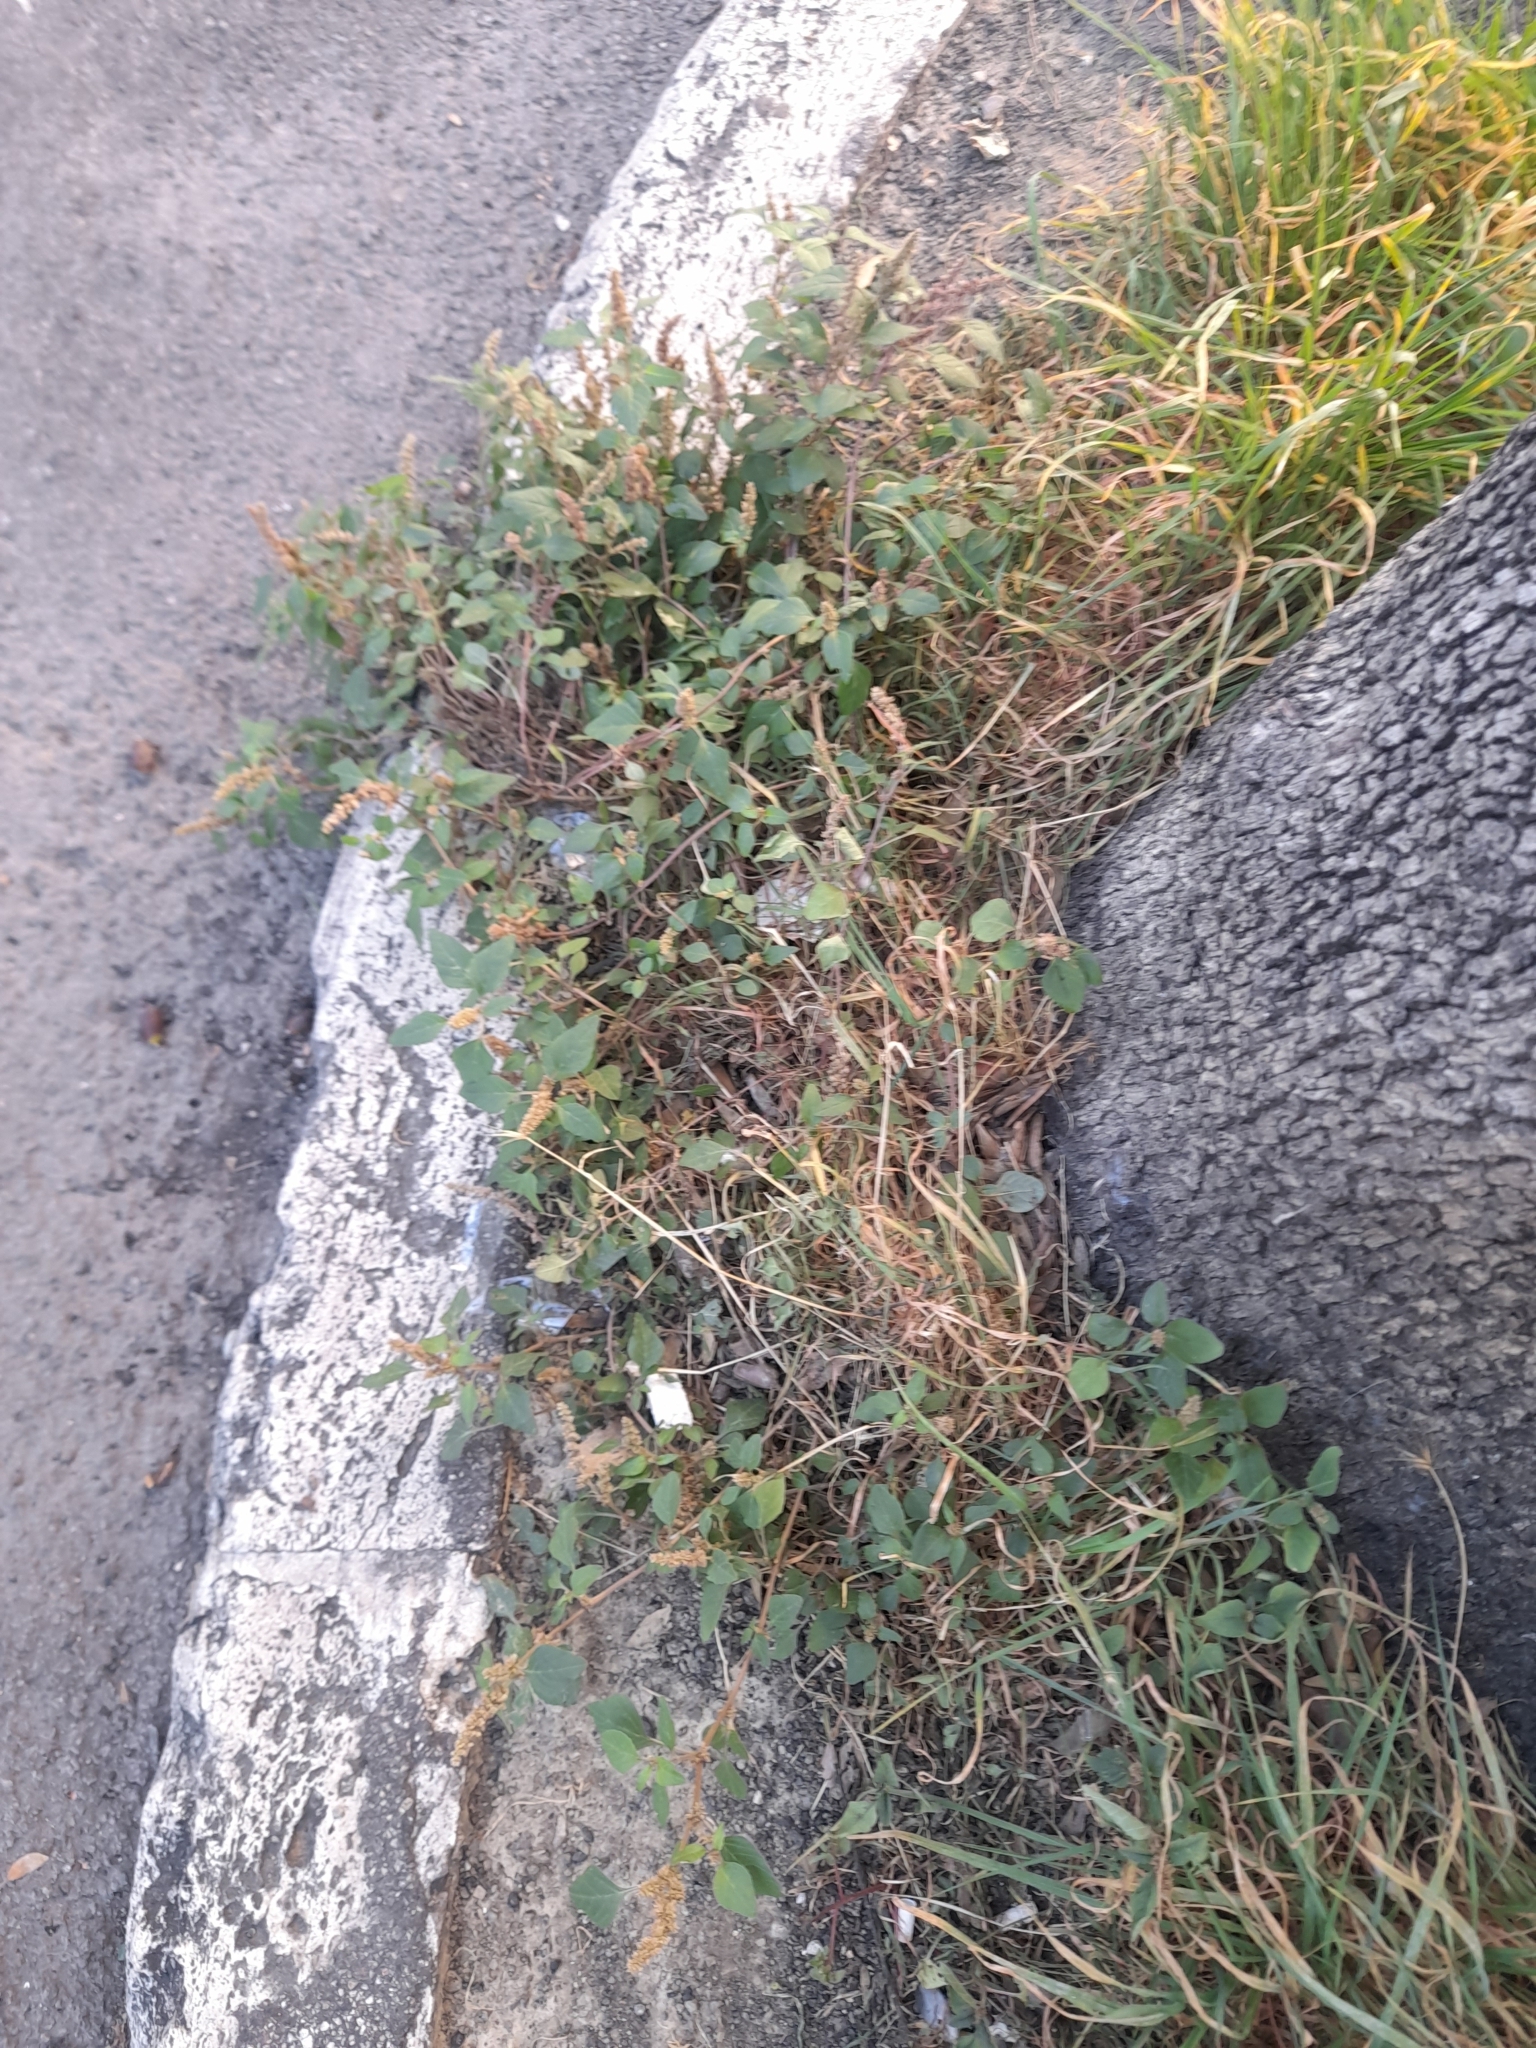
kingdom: Plantae
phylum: Tracheophyta
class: Magnoliopsida
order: Caryophyllales
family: Amaranthaceae
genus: Amaranthus
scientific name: Amaranthus deflexus
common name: Perennial pigweed
